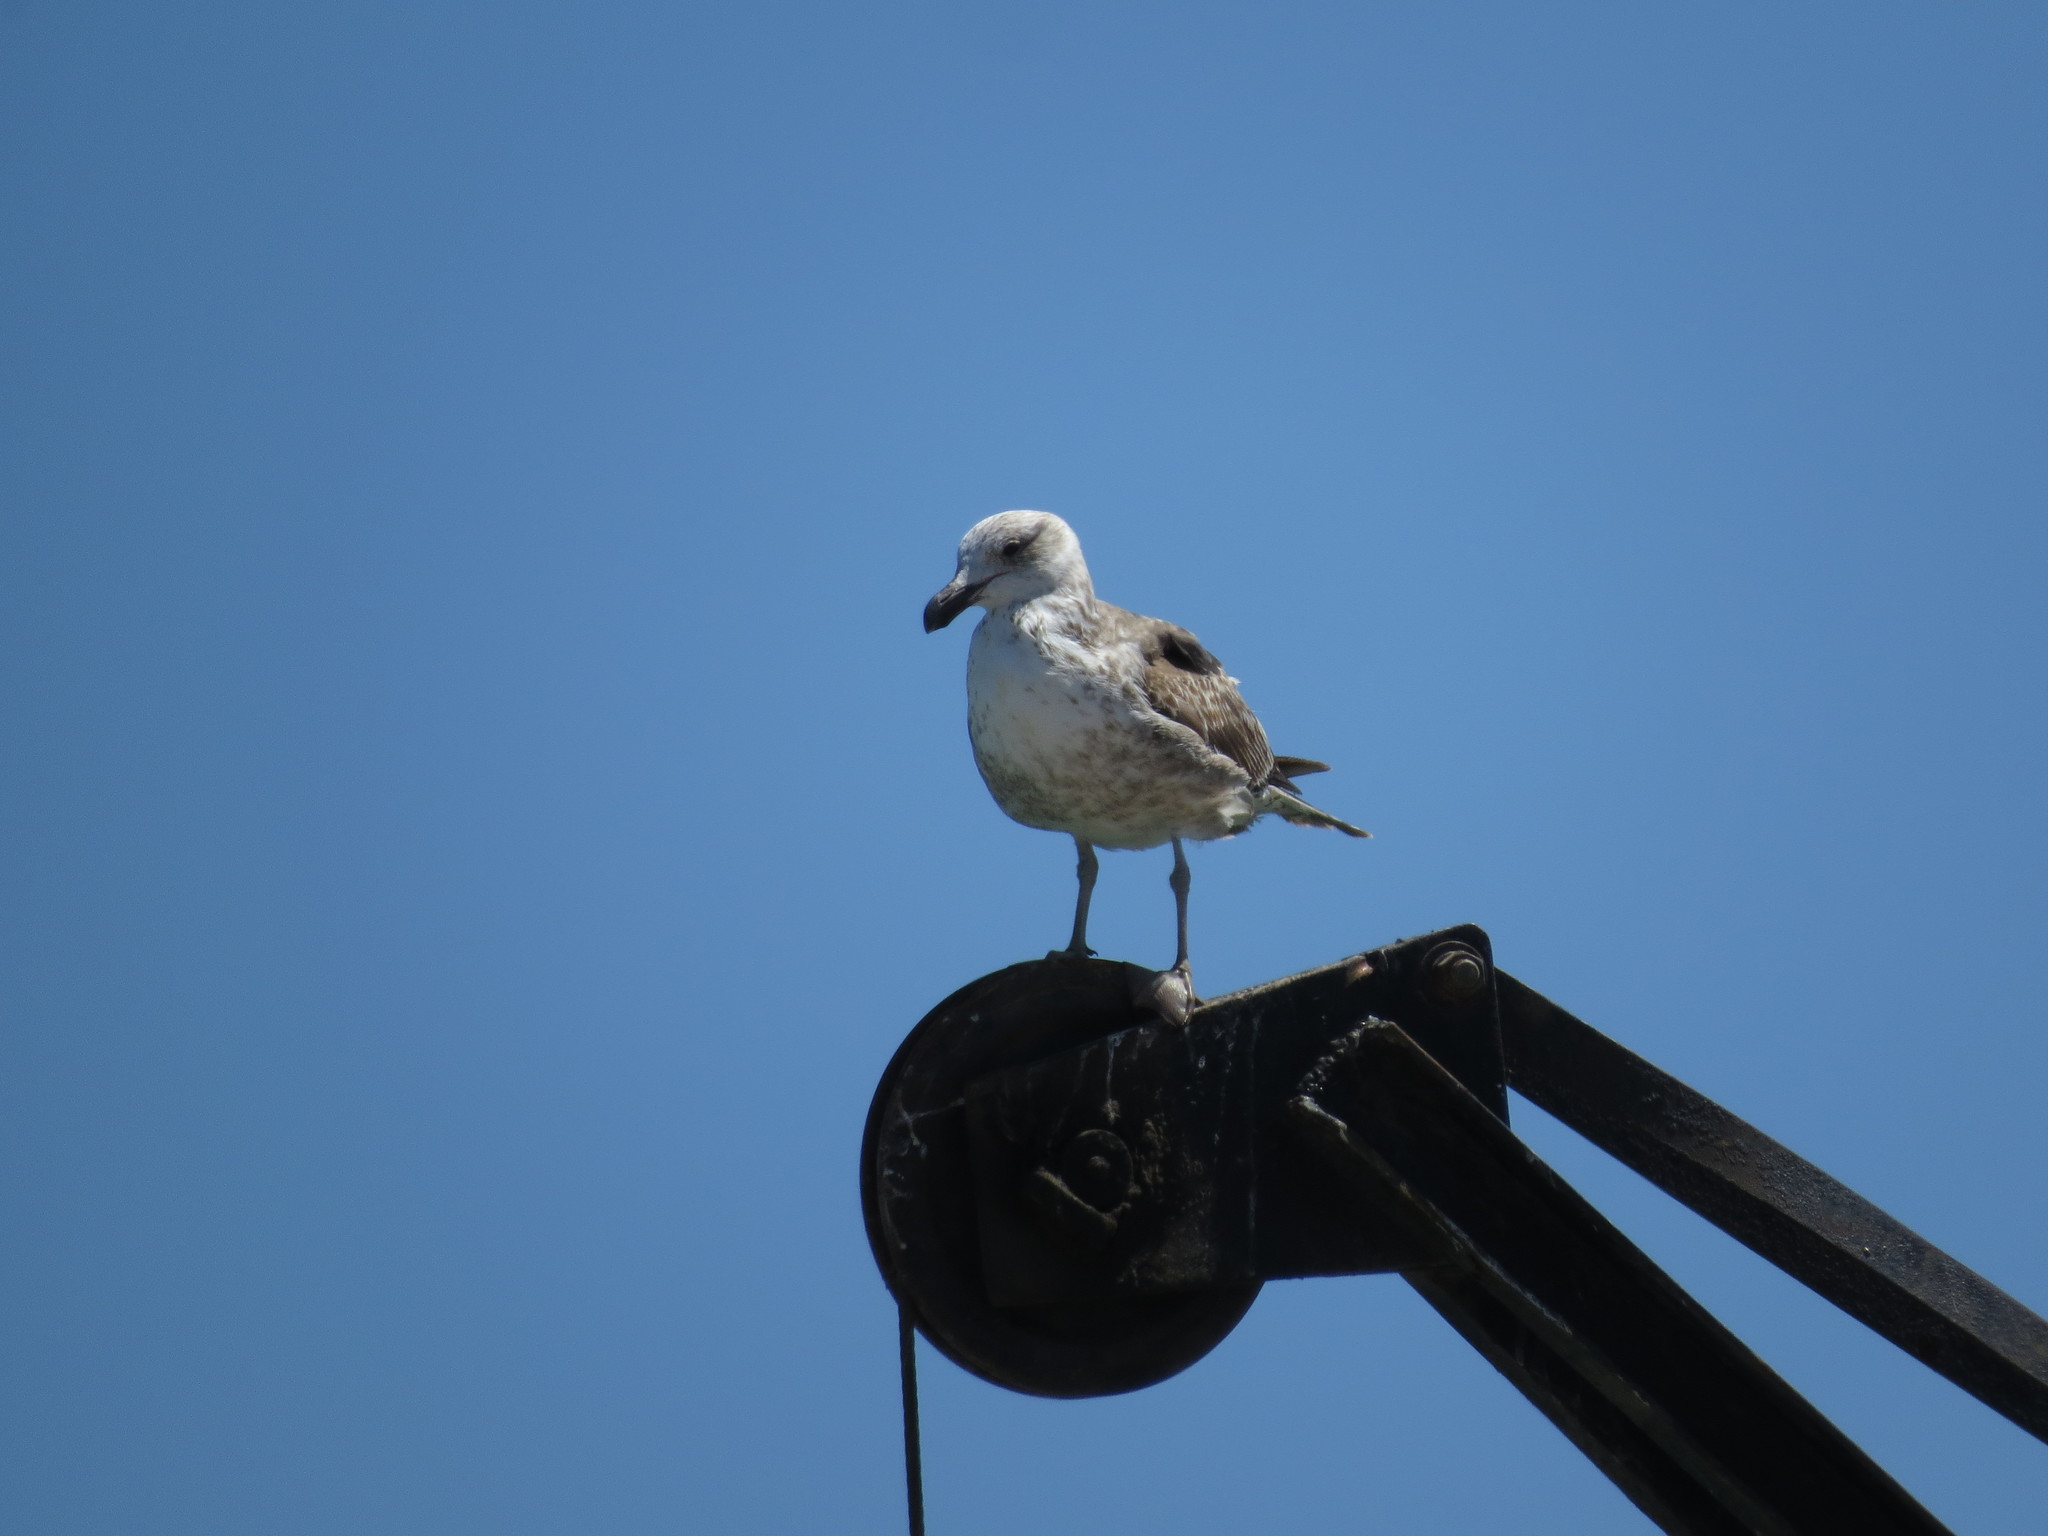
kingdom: Animalia
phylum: Chordata
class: Aves
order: Charadriiformes
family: Laridae
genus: Larus
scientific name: Larus dominicanus
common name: Kelp gull
